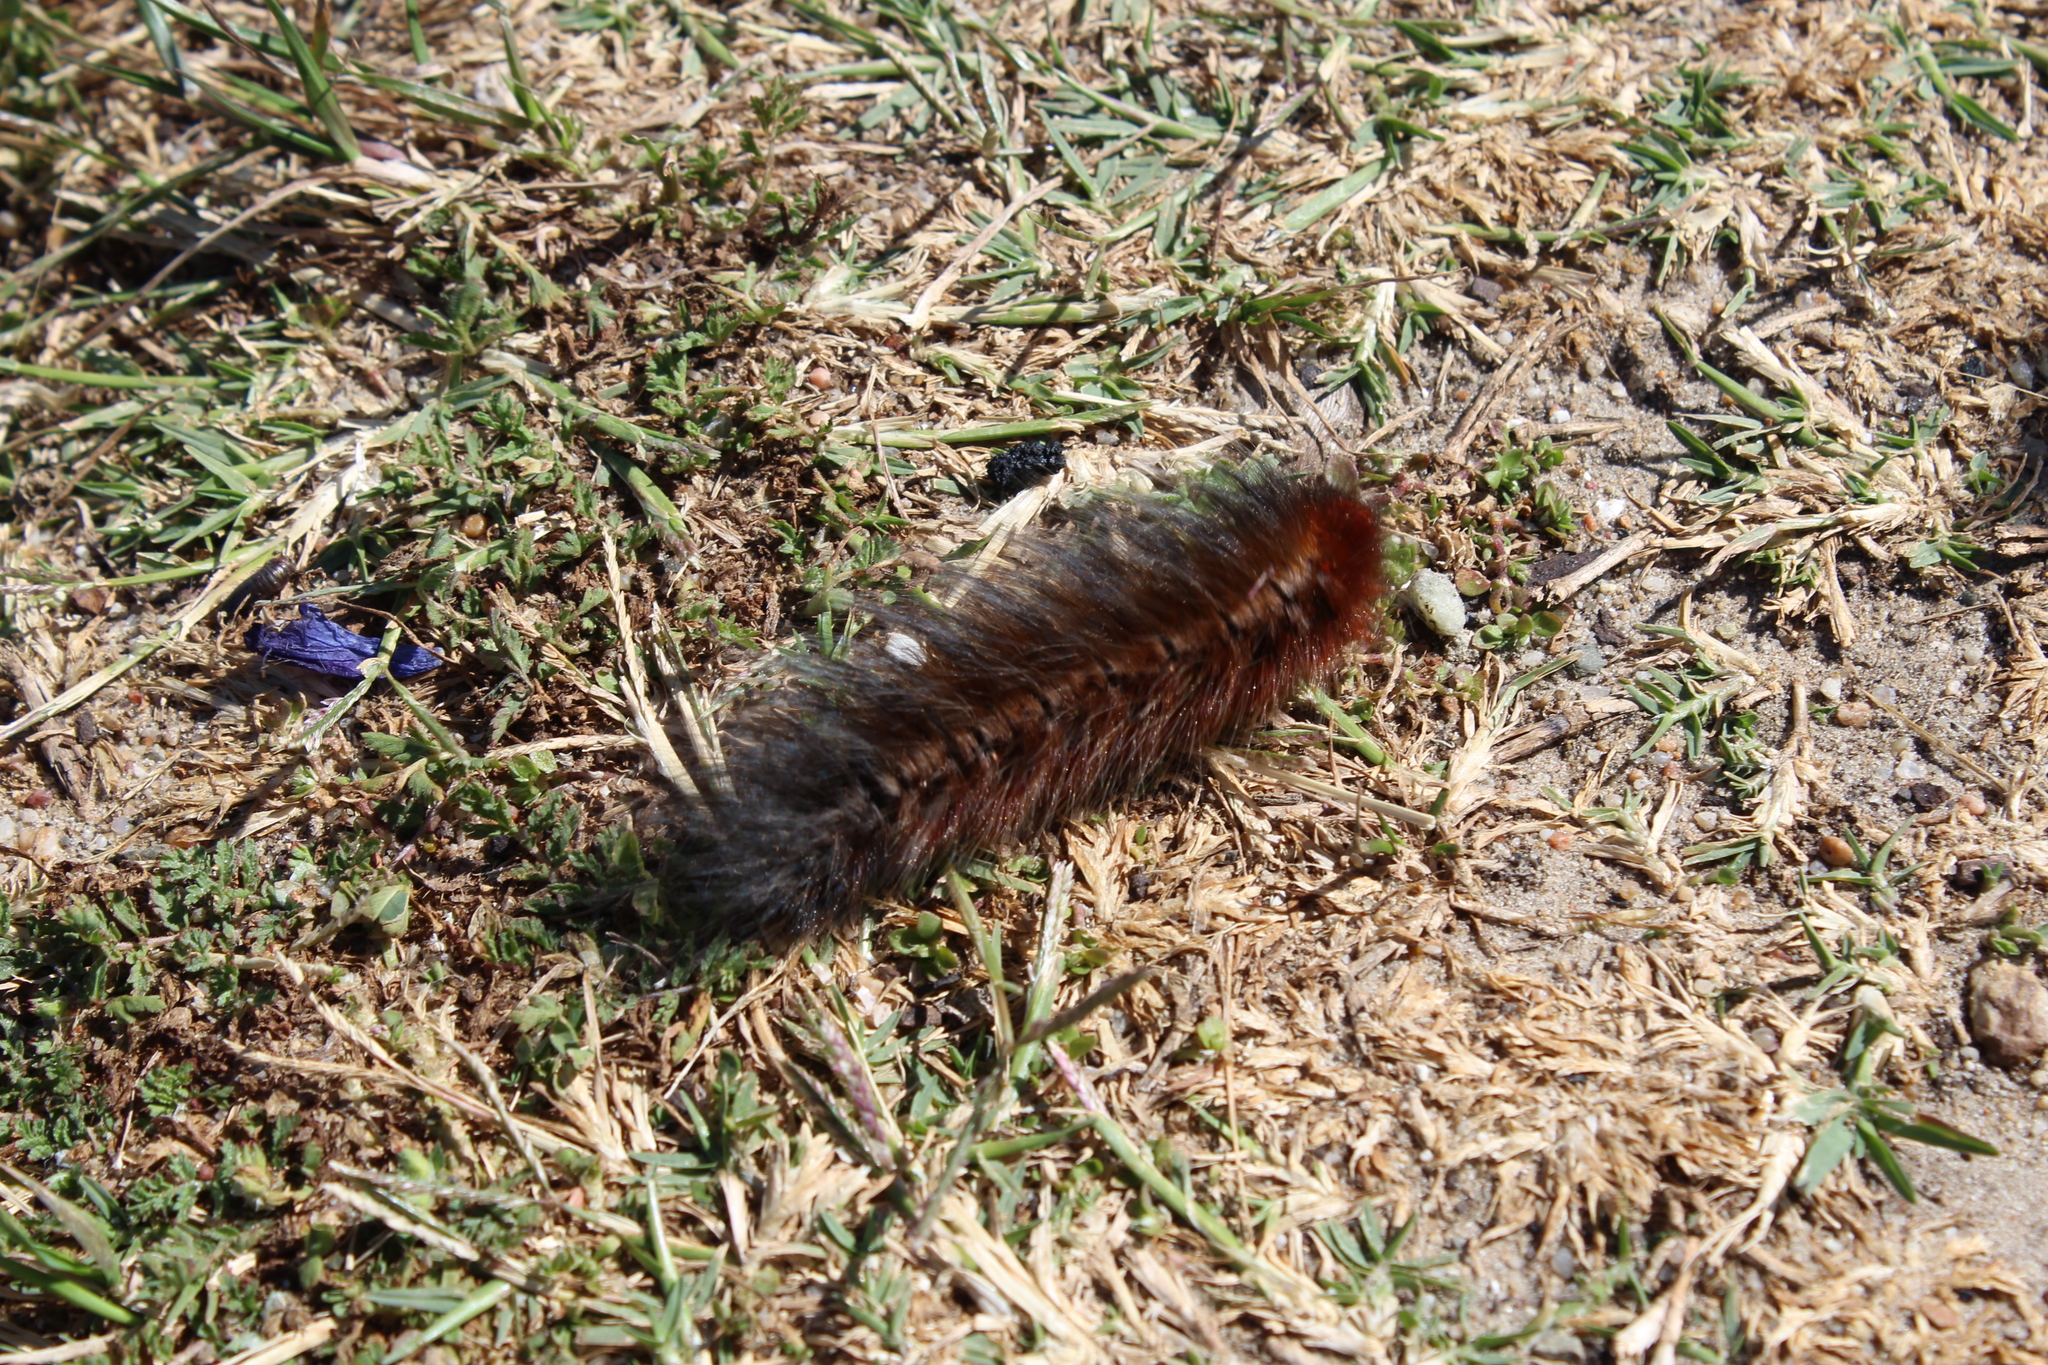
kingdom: Animalia
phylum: Arthropoda
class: Insecta
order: Lepidoptera
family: Lasiocampidae
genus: Mesocelis
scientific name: Mesocelis monticola
